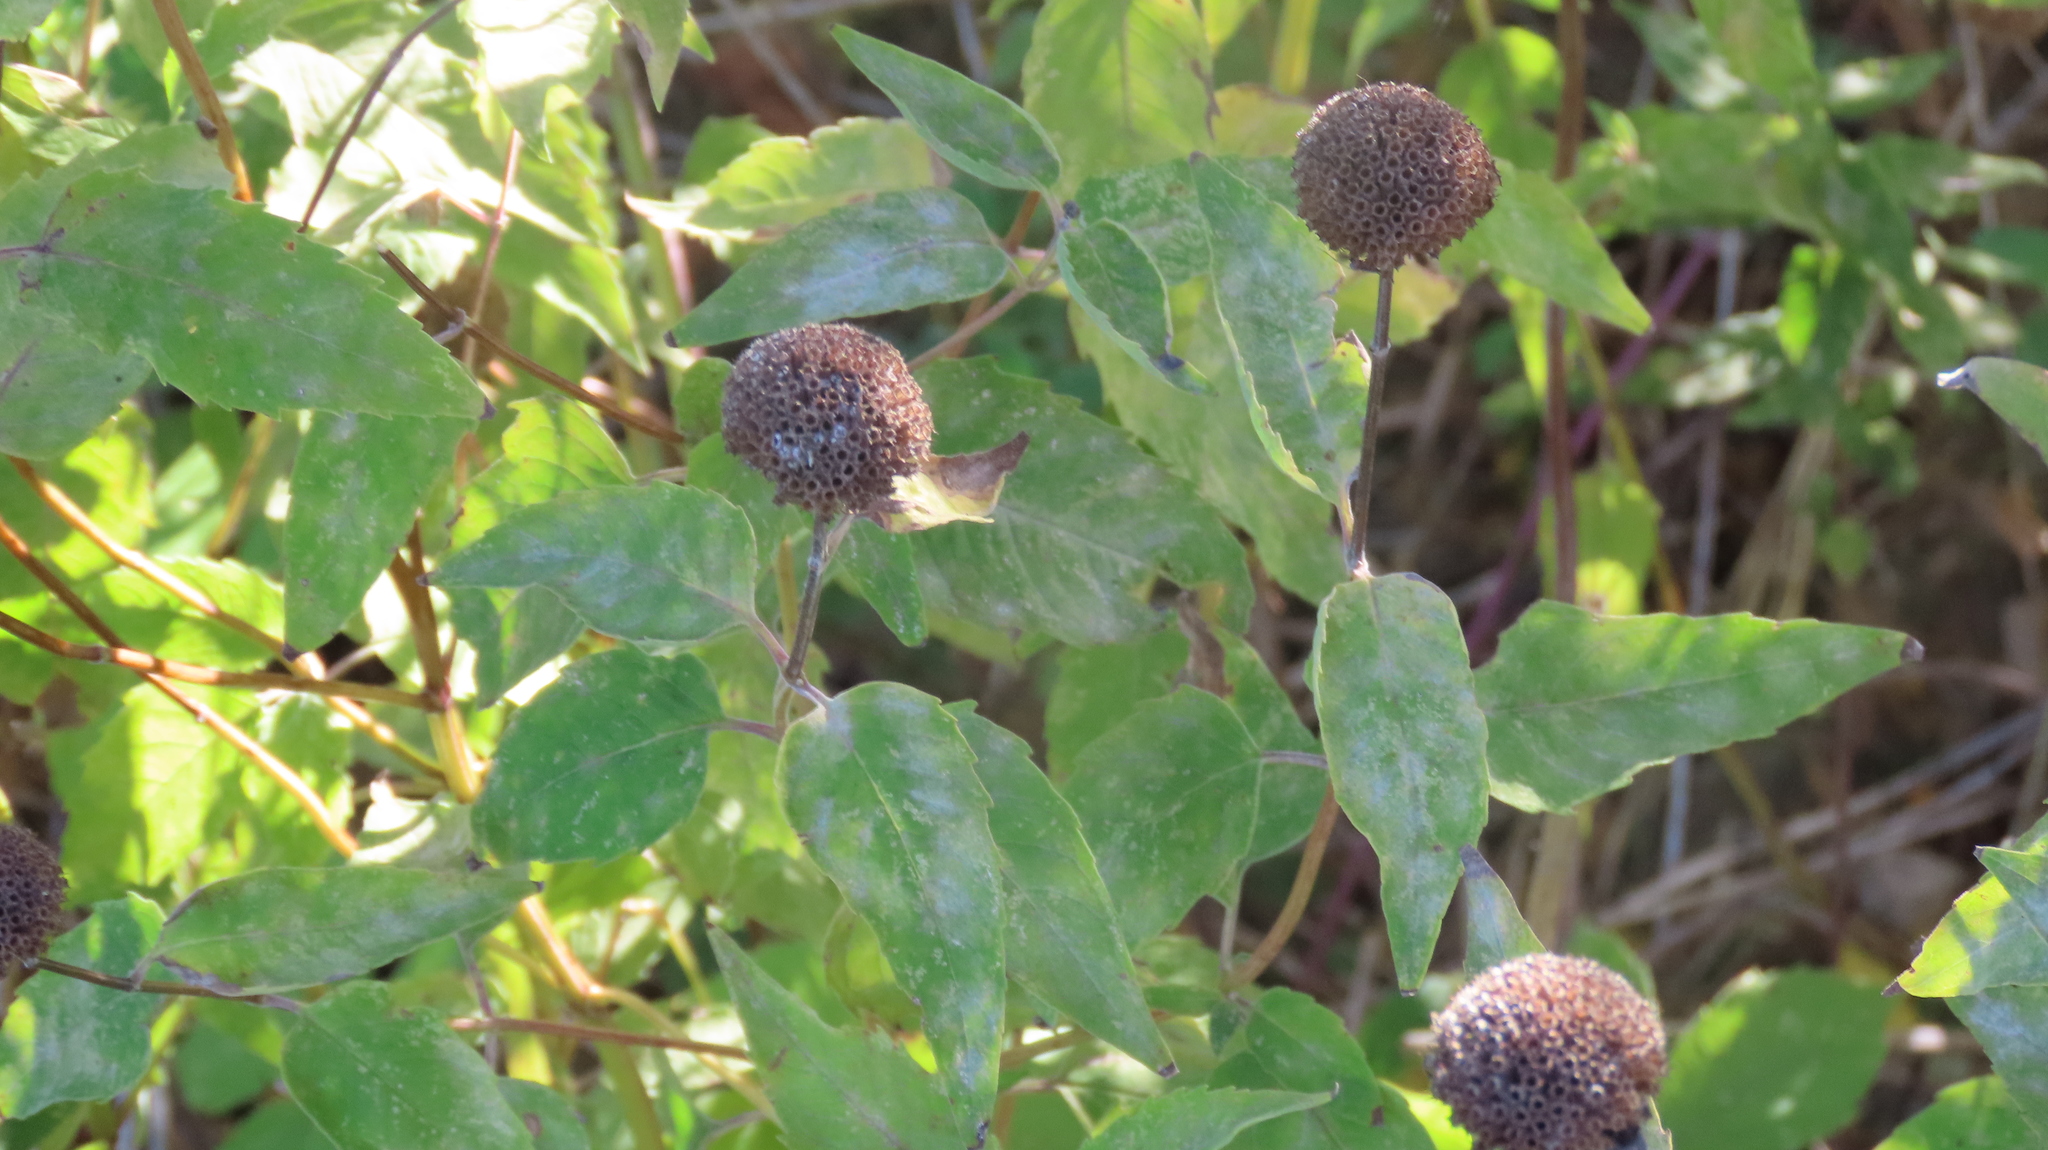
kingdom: Plantae
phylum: Tracheophyta
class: Magnoliopsida
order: Lamiales
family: Lamiaceae
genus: Monarda
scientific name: Monarda fistulosa
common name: Purple beebalm
